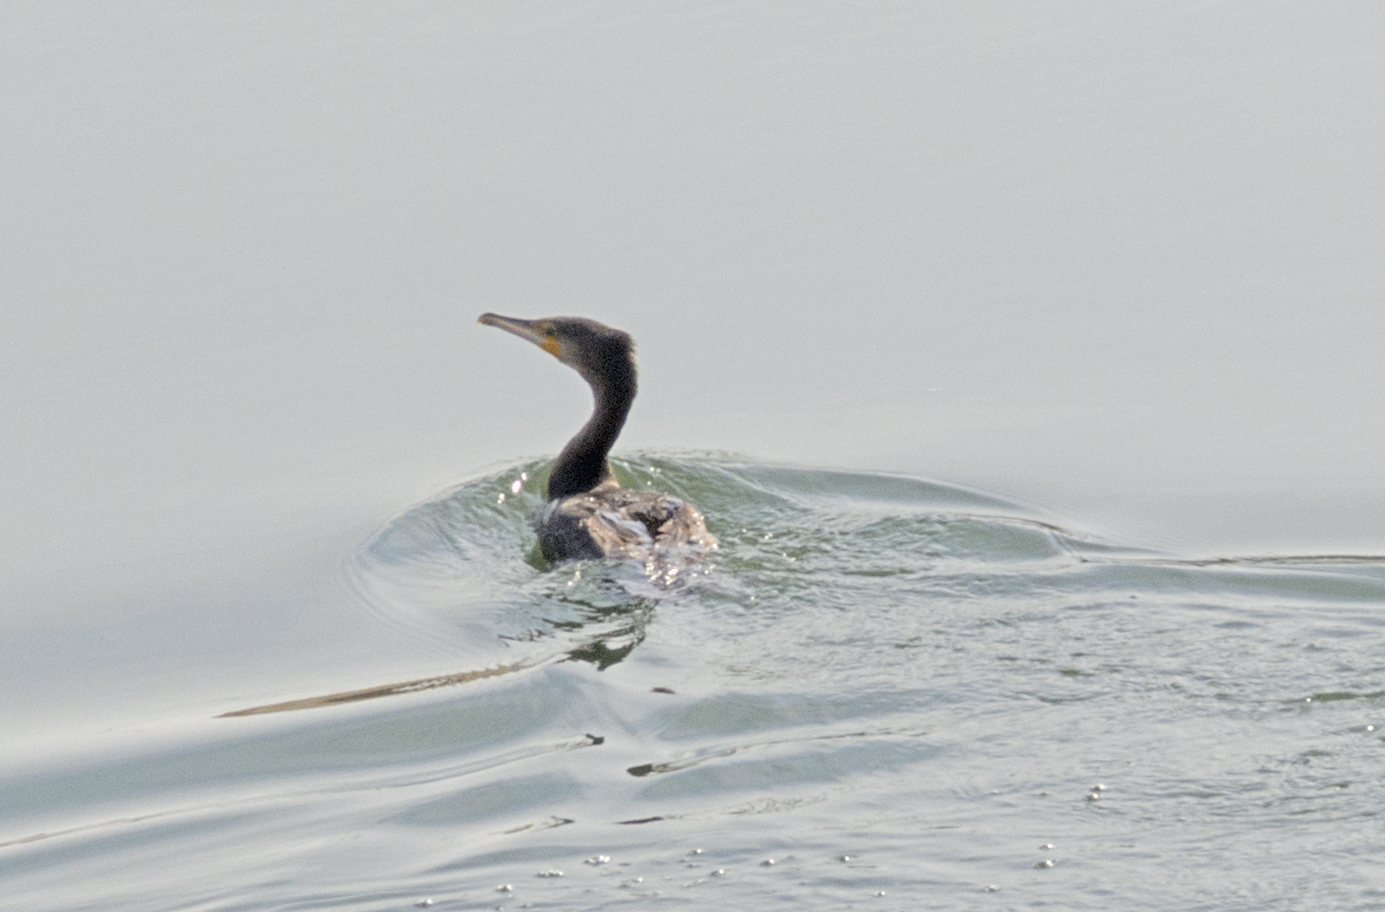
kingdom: Animalia
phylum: Chordata
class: Aves
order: Suliformes
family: Phalacrocoracidae
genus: Phalacrocorax
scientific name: Phalacrocorax carbo
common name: Great cormorant
